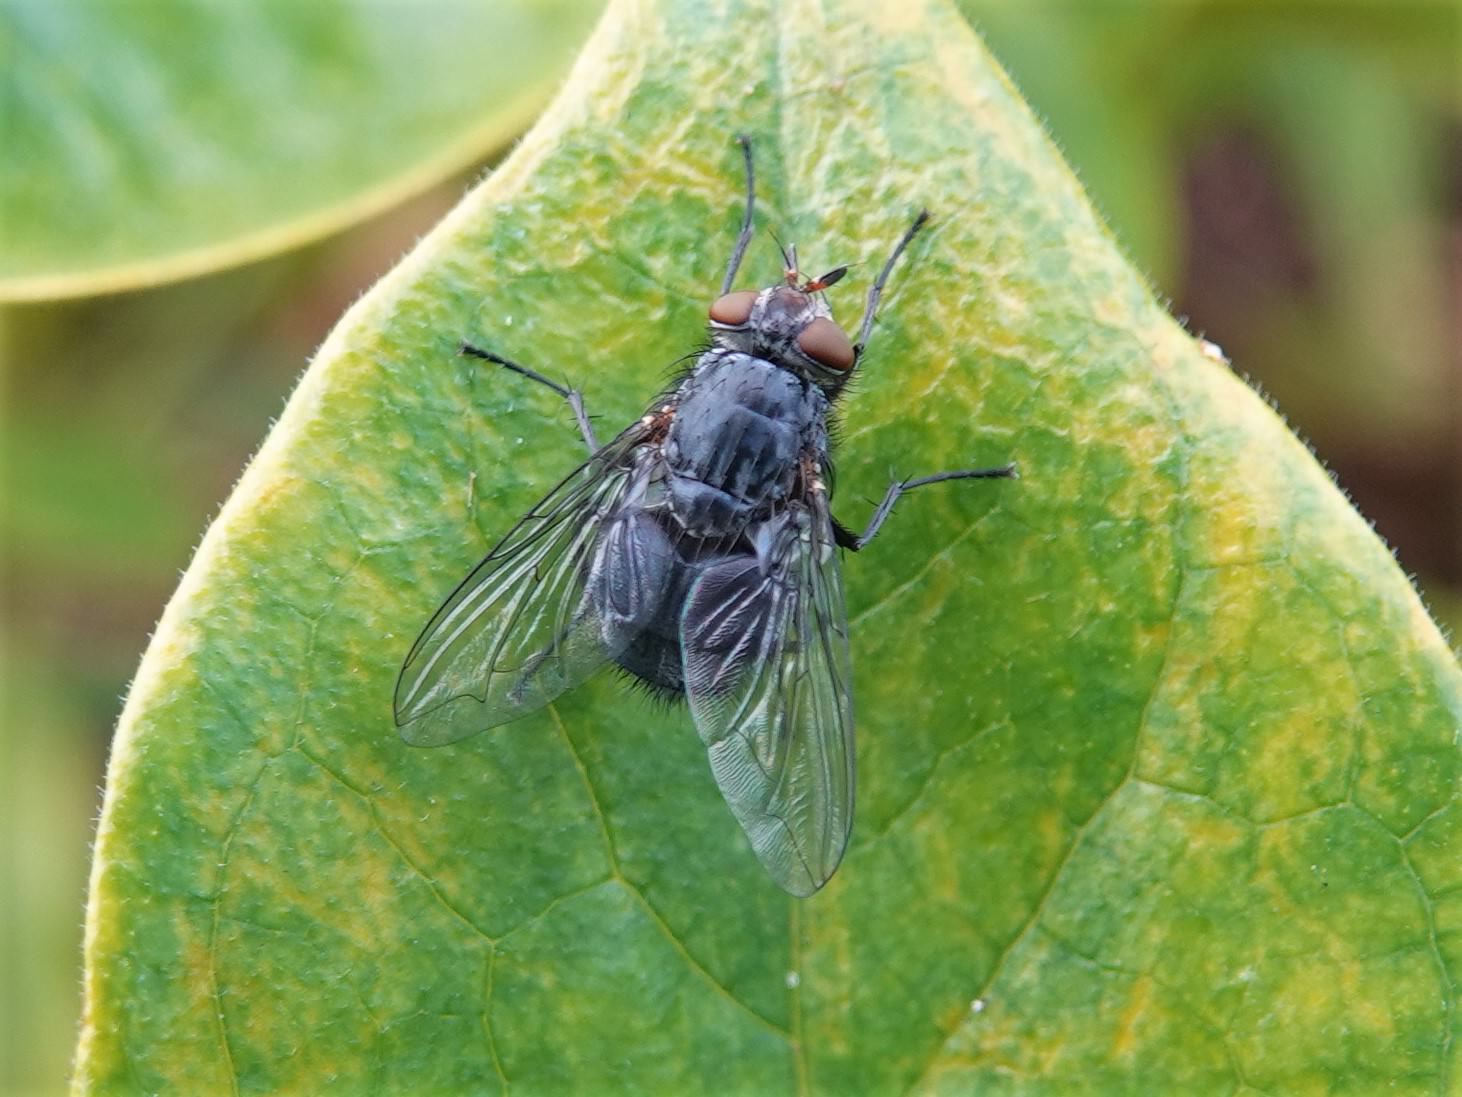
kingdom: Animalia
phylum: Arthropoda
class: Insecta
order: Diptera
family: Calliphoridae
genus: Calliphora
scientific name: Calliphora vicina
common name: Common blow flie
